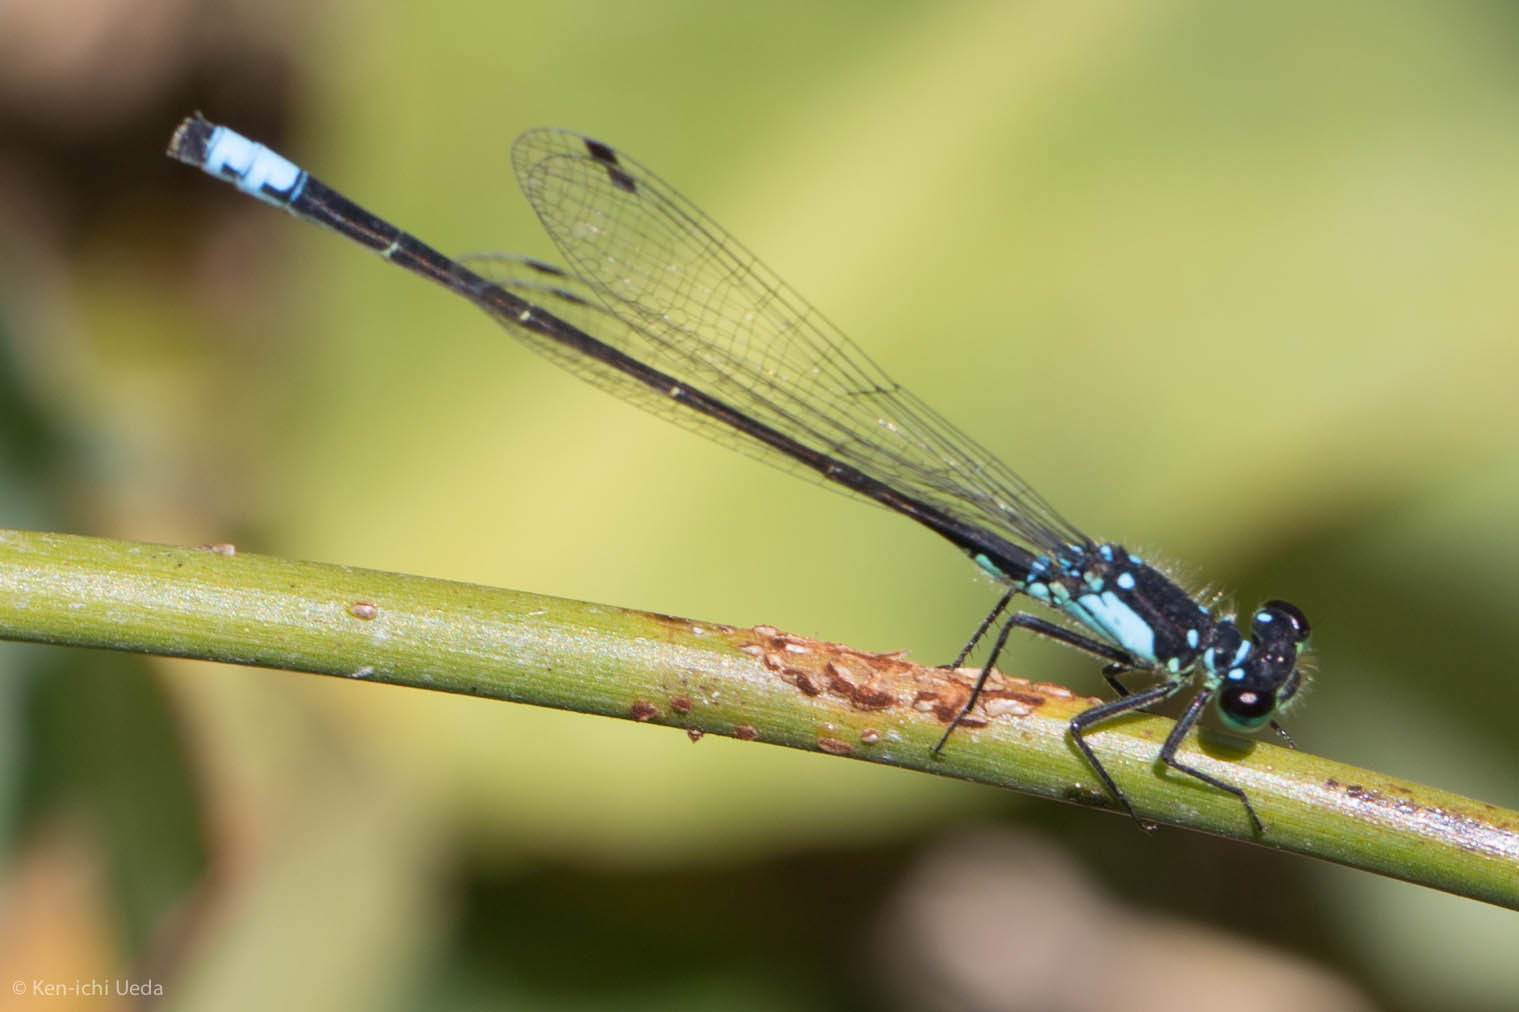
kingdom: Animalia
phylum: Arthropoda
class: Insecta
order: Odonata
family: Coenagrionidae
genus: Ischnura
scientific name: Ischnura cervula
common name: Pacific forktail
